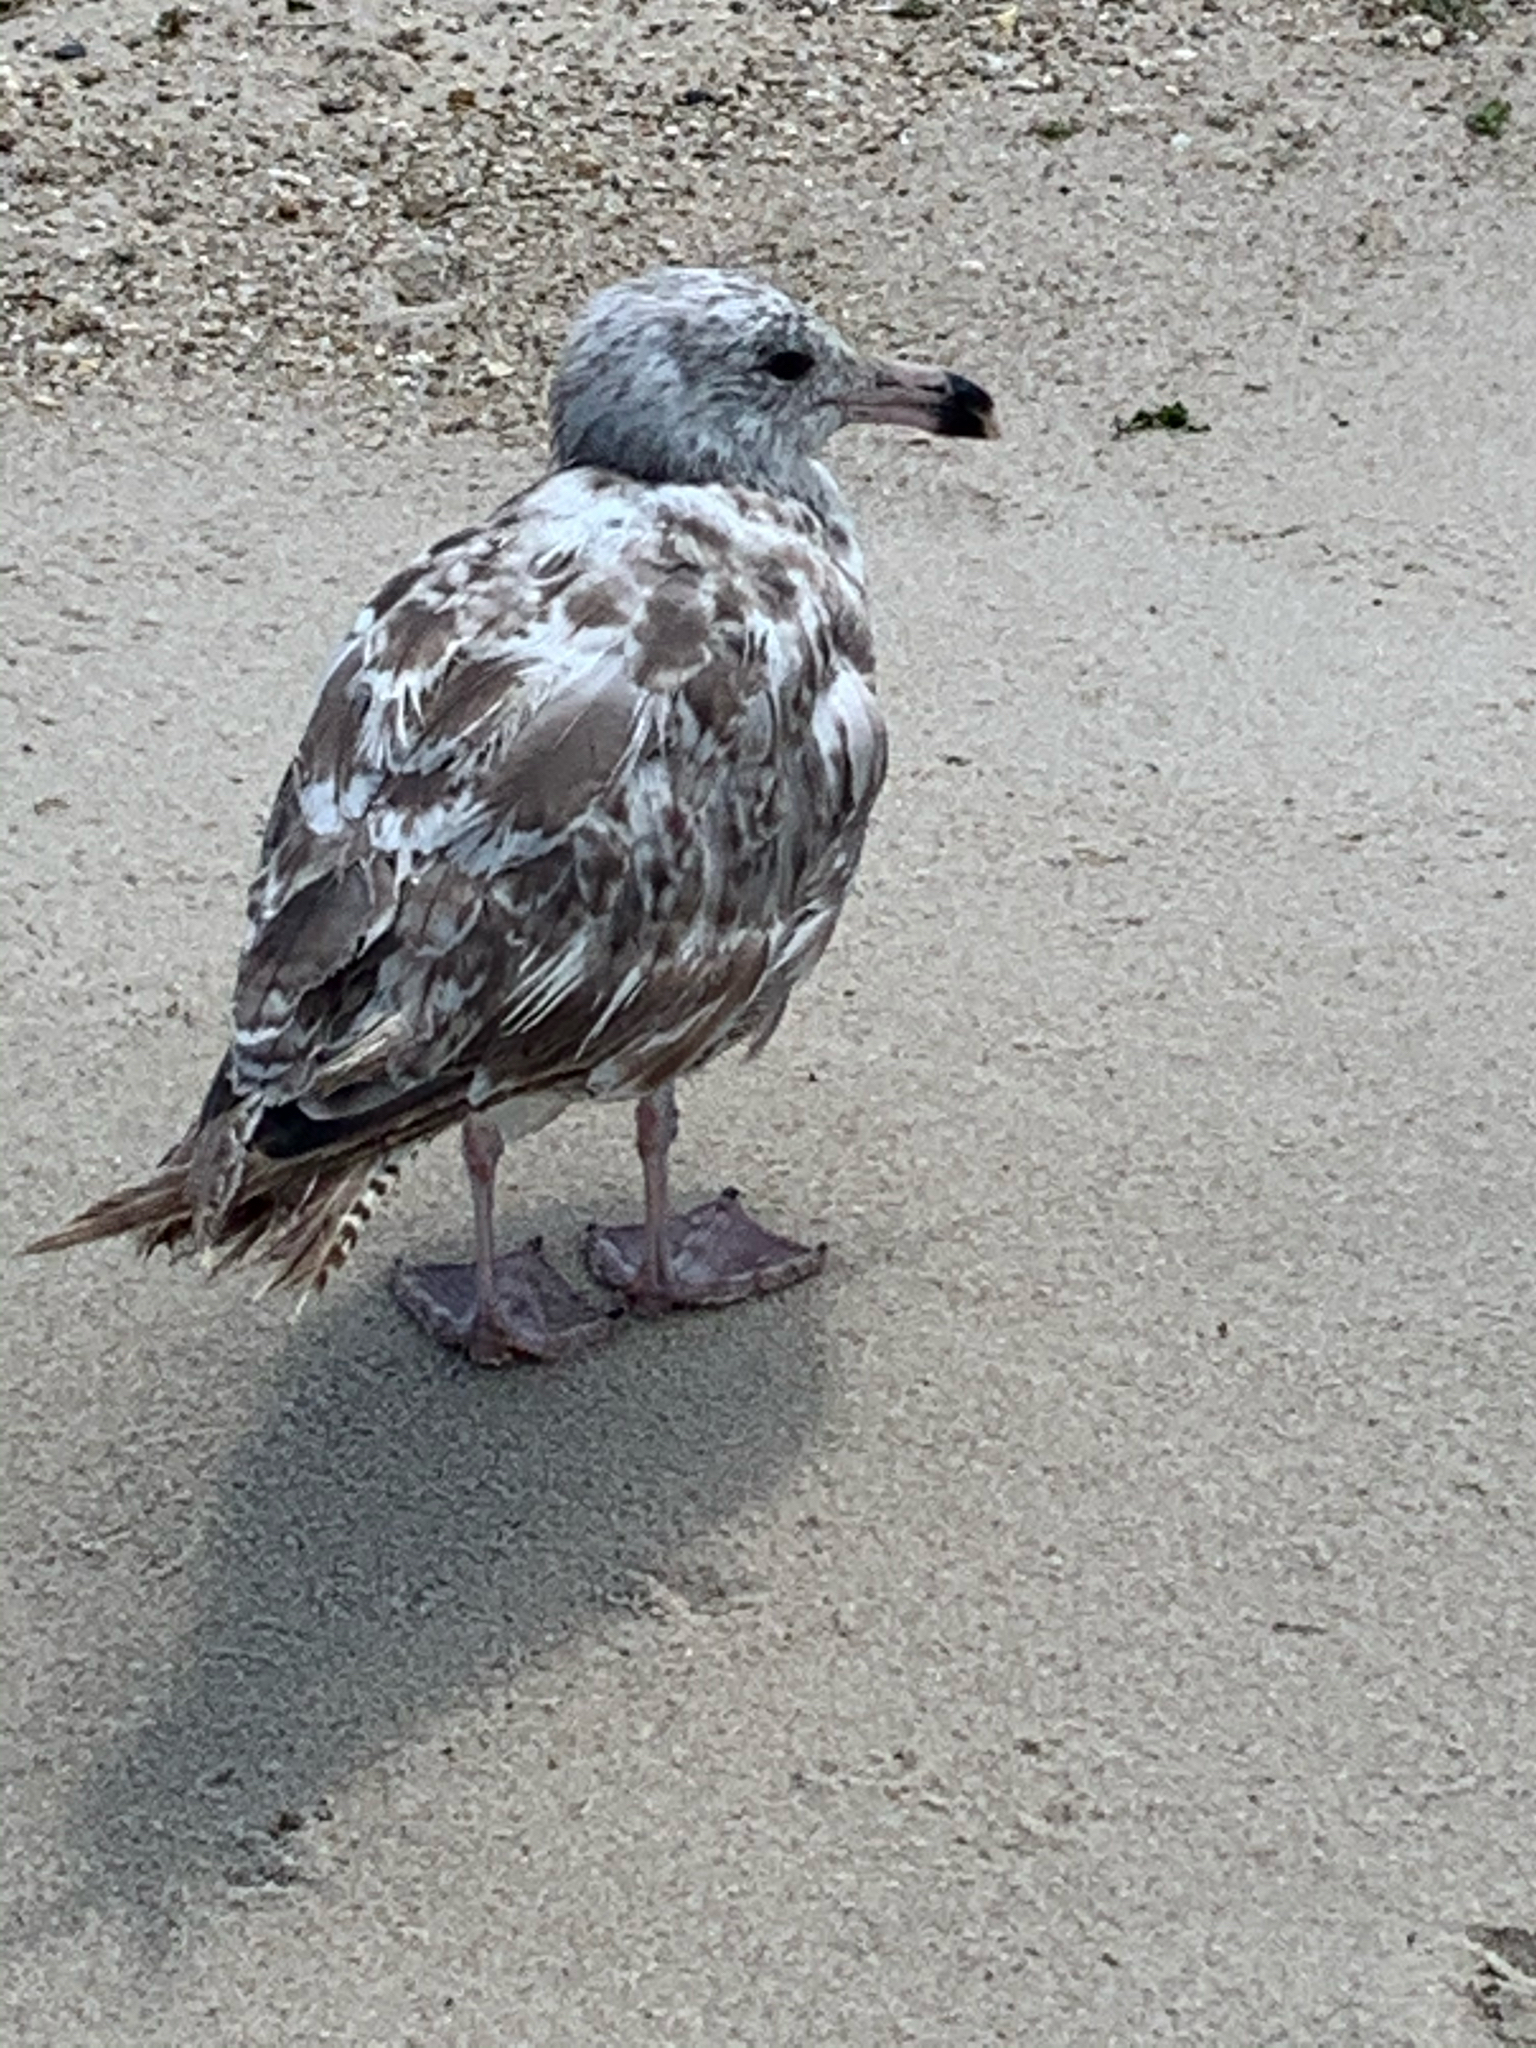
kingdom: Animalia
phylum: Chordata
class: Aves
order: Charadriiformes
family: Laridae
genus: Larus
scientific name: Larus argentatus
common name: Herring gull
